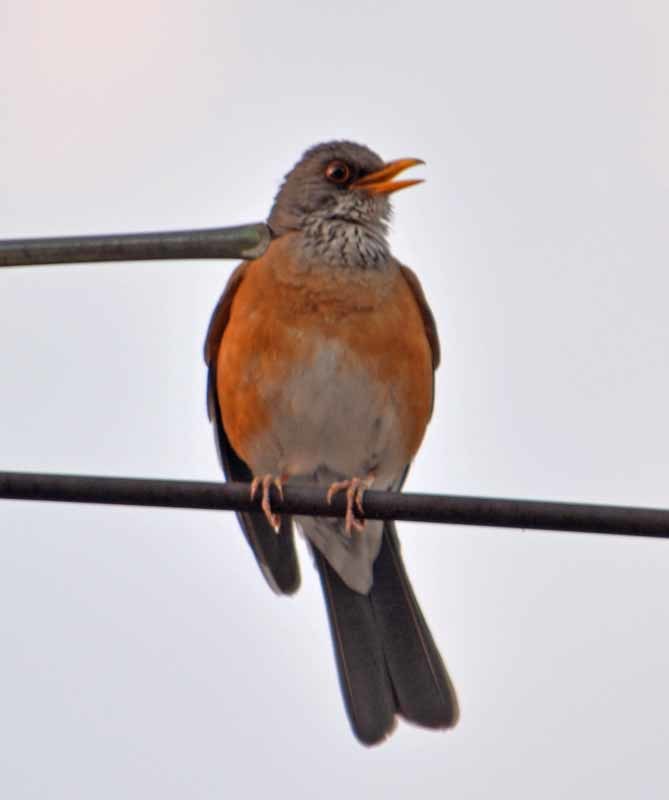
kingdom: Animalia
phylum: Chordata
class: Aves
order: Passeriformes
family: Turdidae
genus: Turdus
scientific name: Turdus rufopalliatus
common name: Rufous-backed robin
